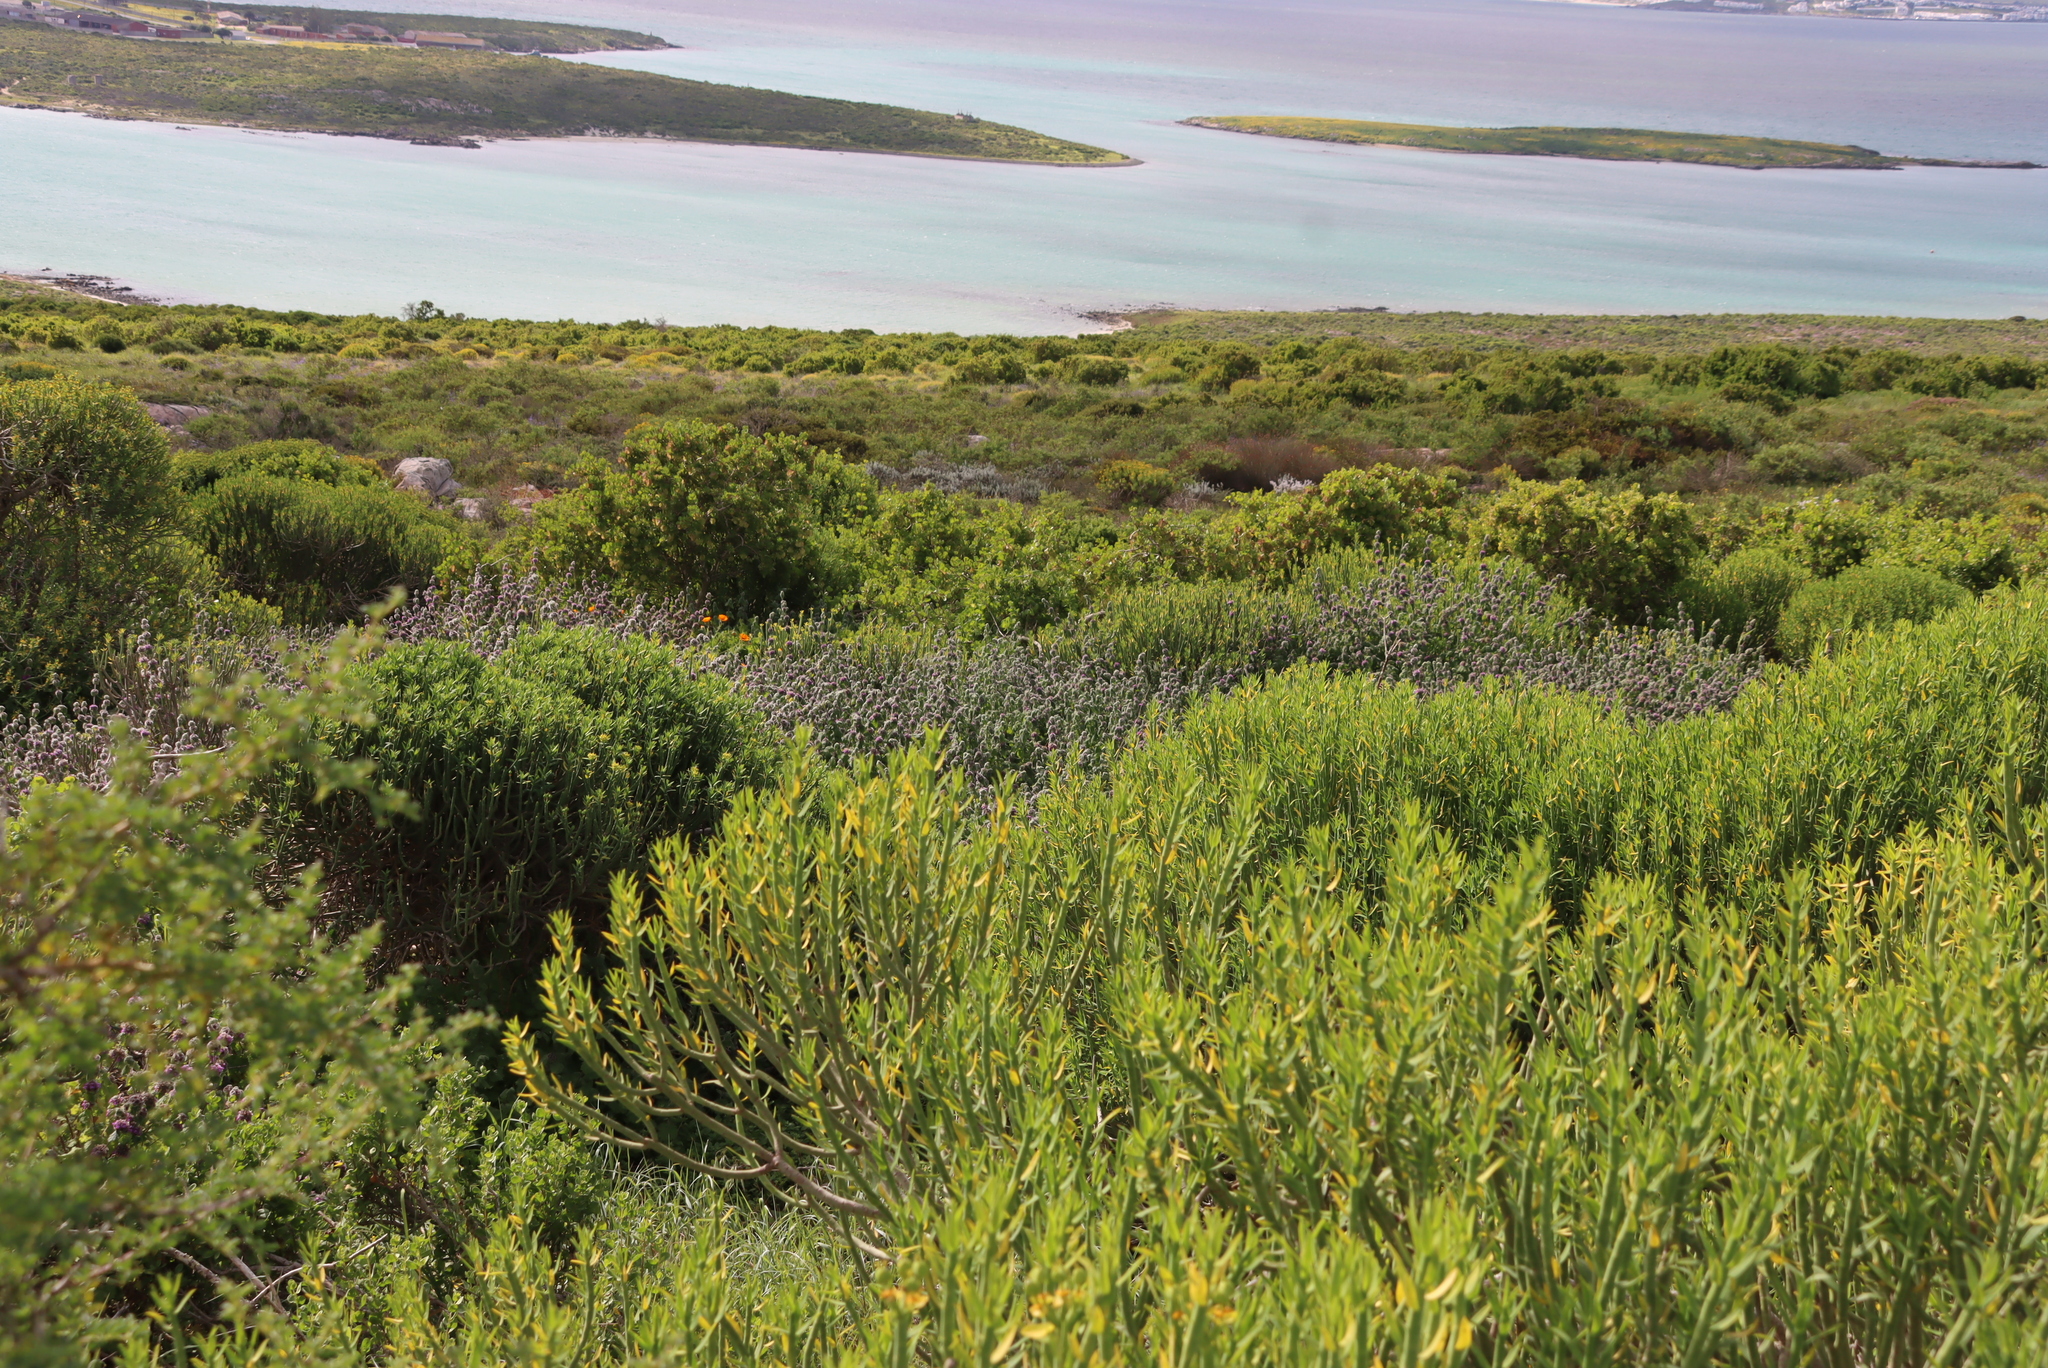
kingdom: Plantae
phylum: Tracheophyta
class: Magnoliopsida
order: Lamiales
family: Lamiaceae
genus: Pseudodictamnus
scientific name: Pseudodictamnus africanus
